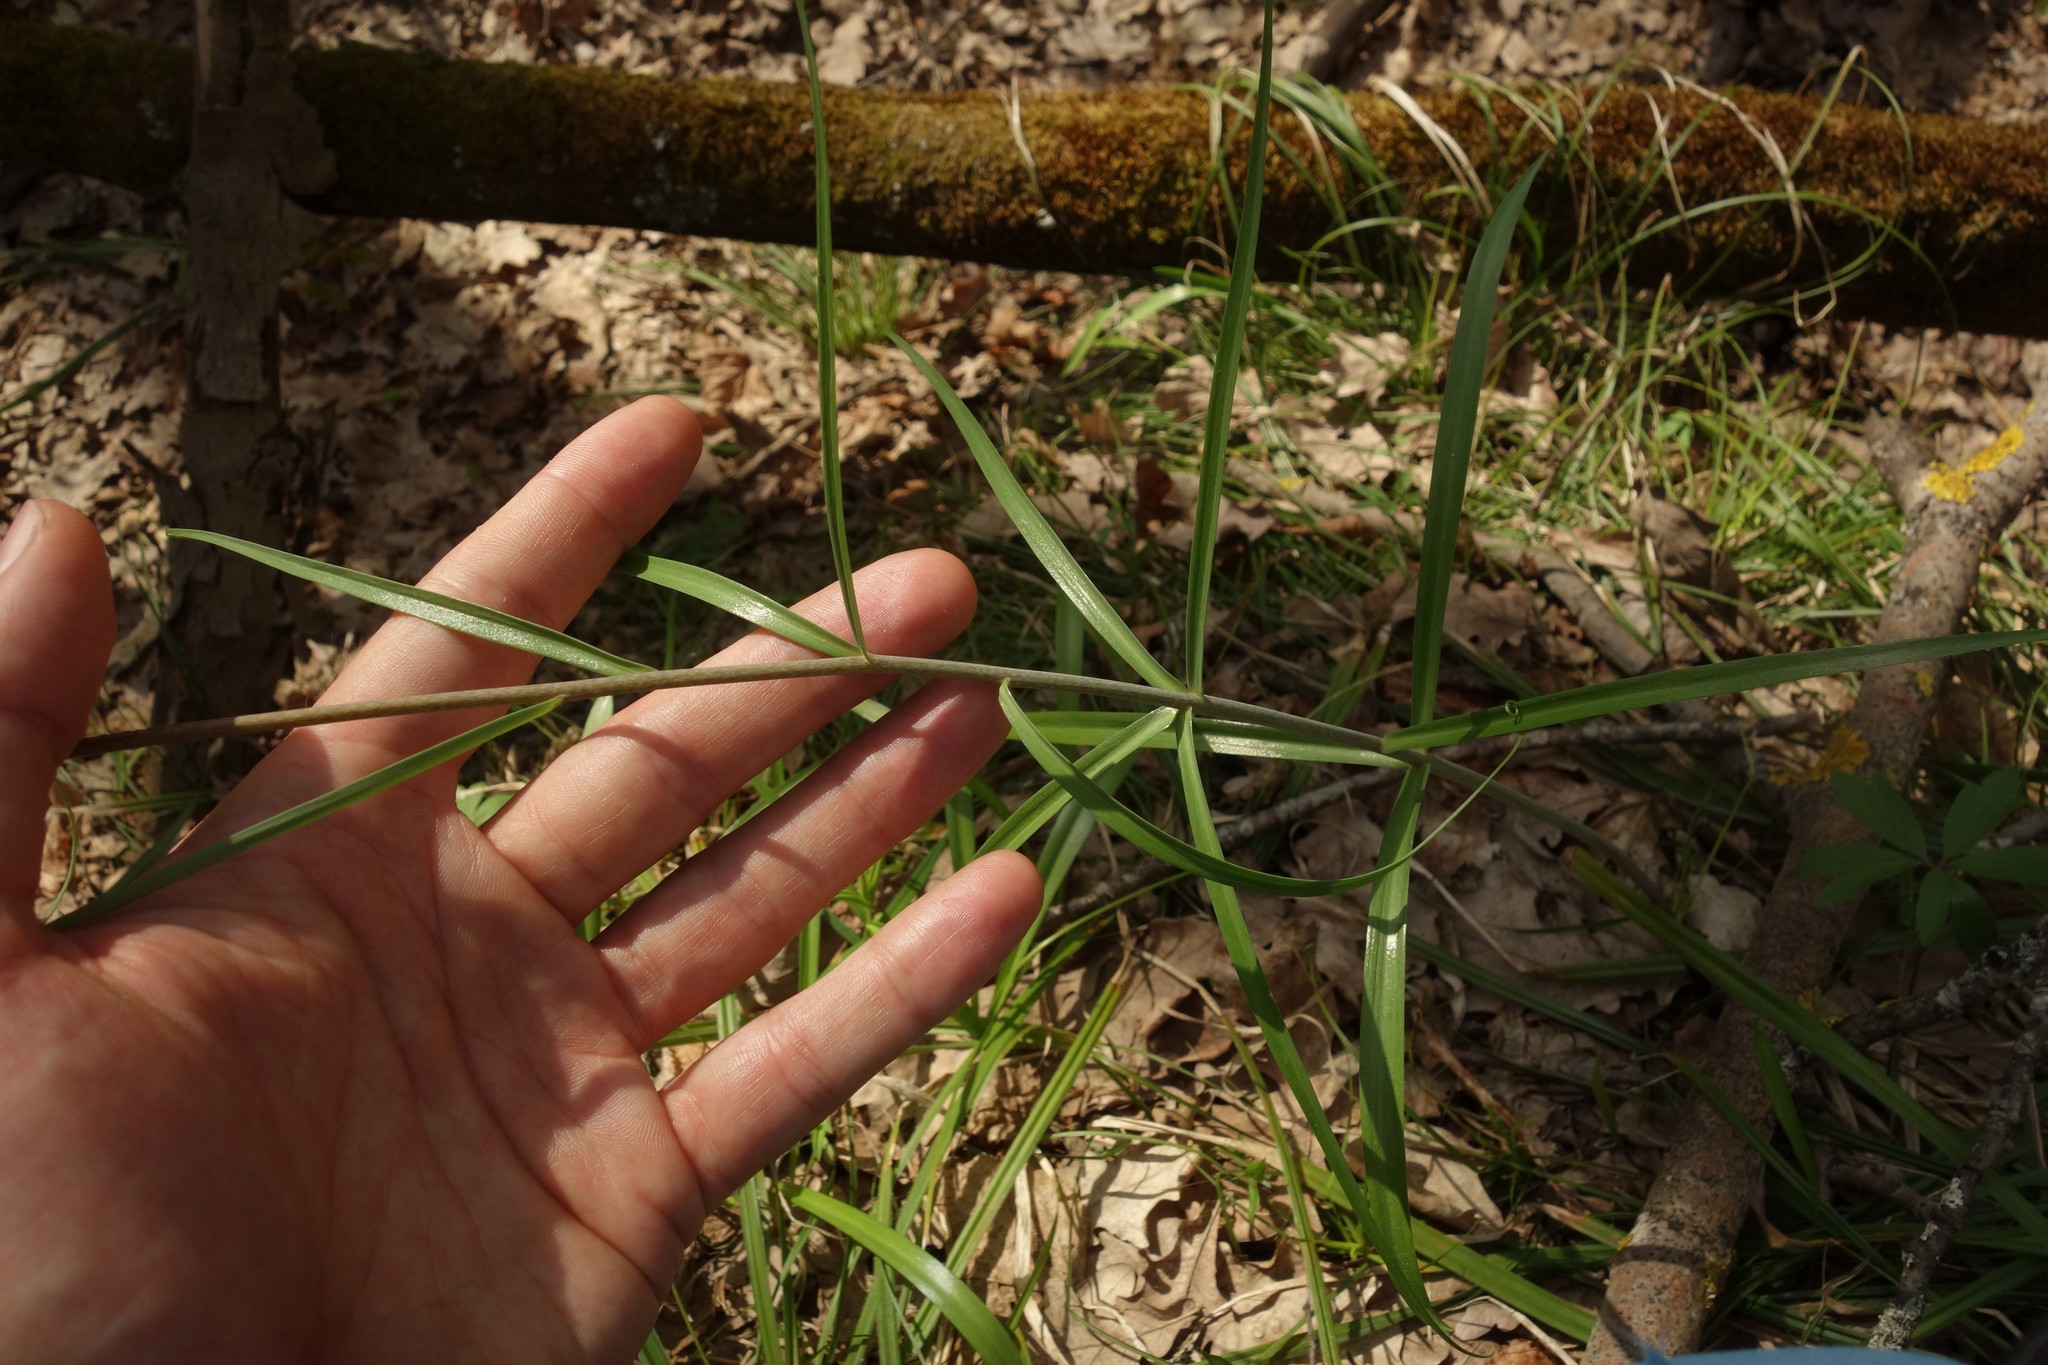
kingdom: Plantae
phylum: Tracheophyta
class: Liliopsida
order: Liliales
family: Liliaceae
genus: Fritillaria
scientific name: Fritillaria ruthenica
